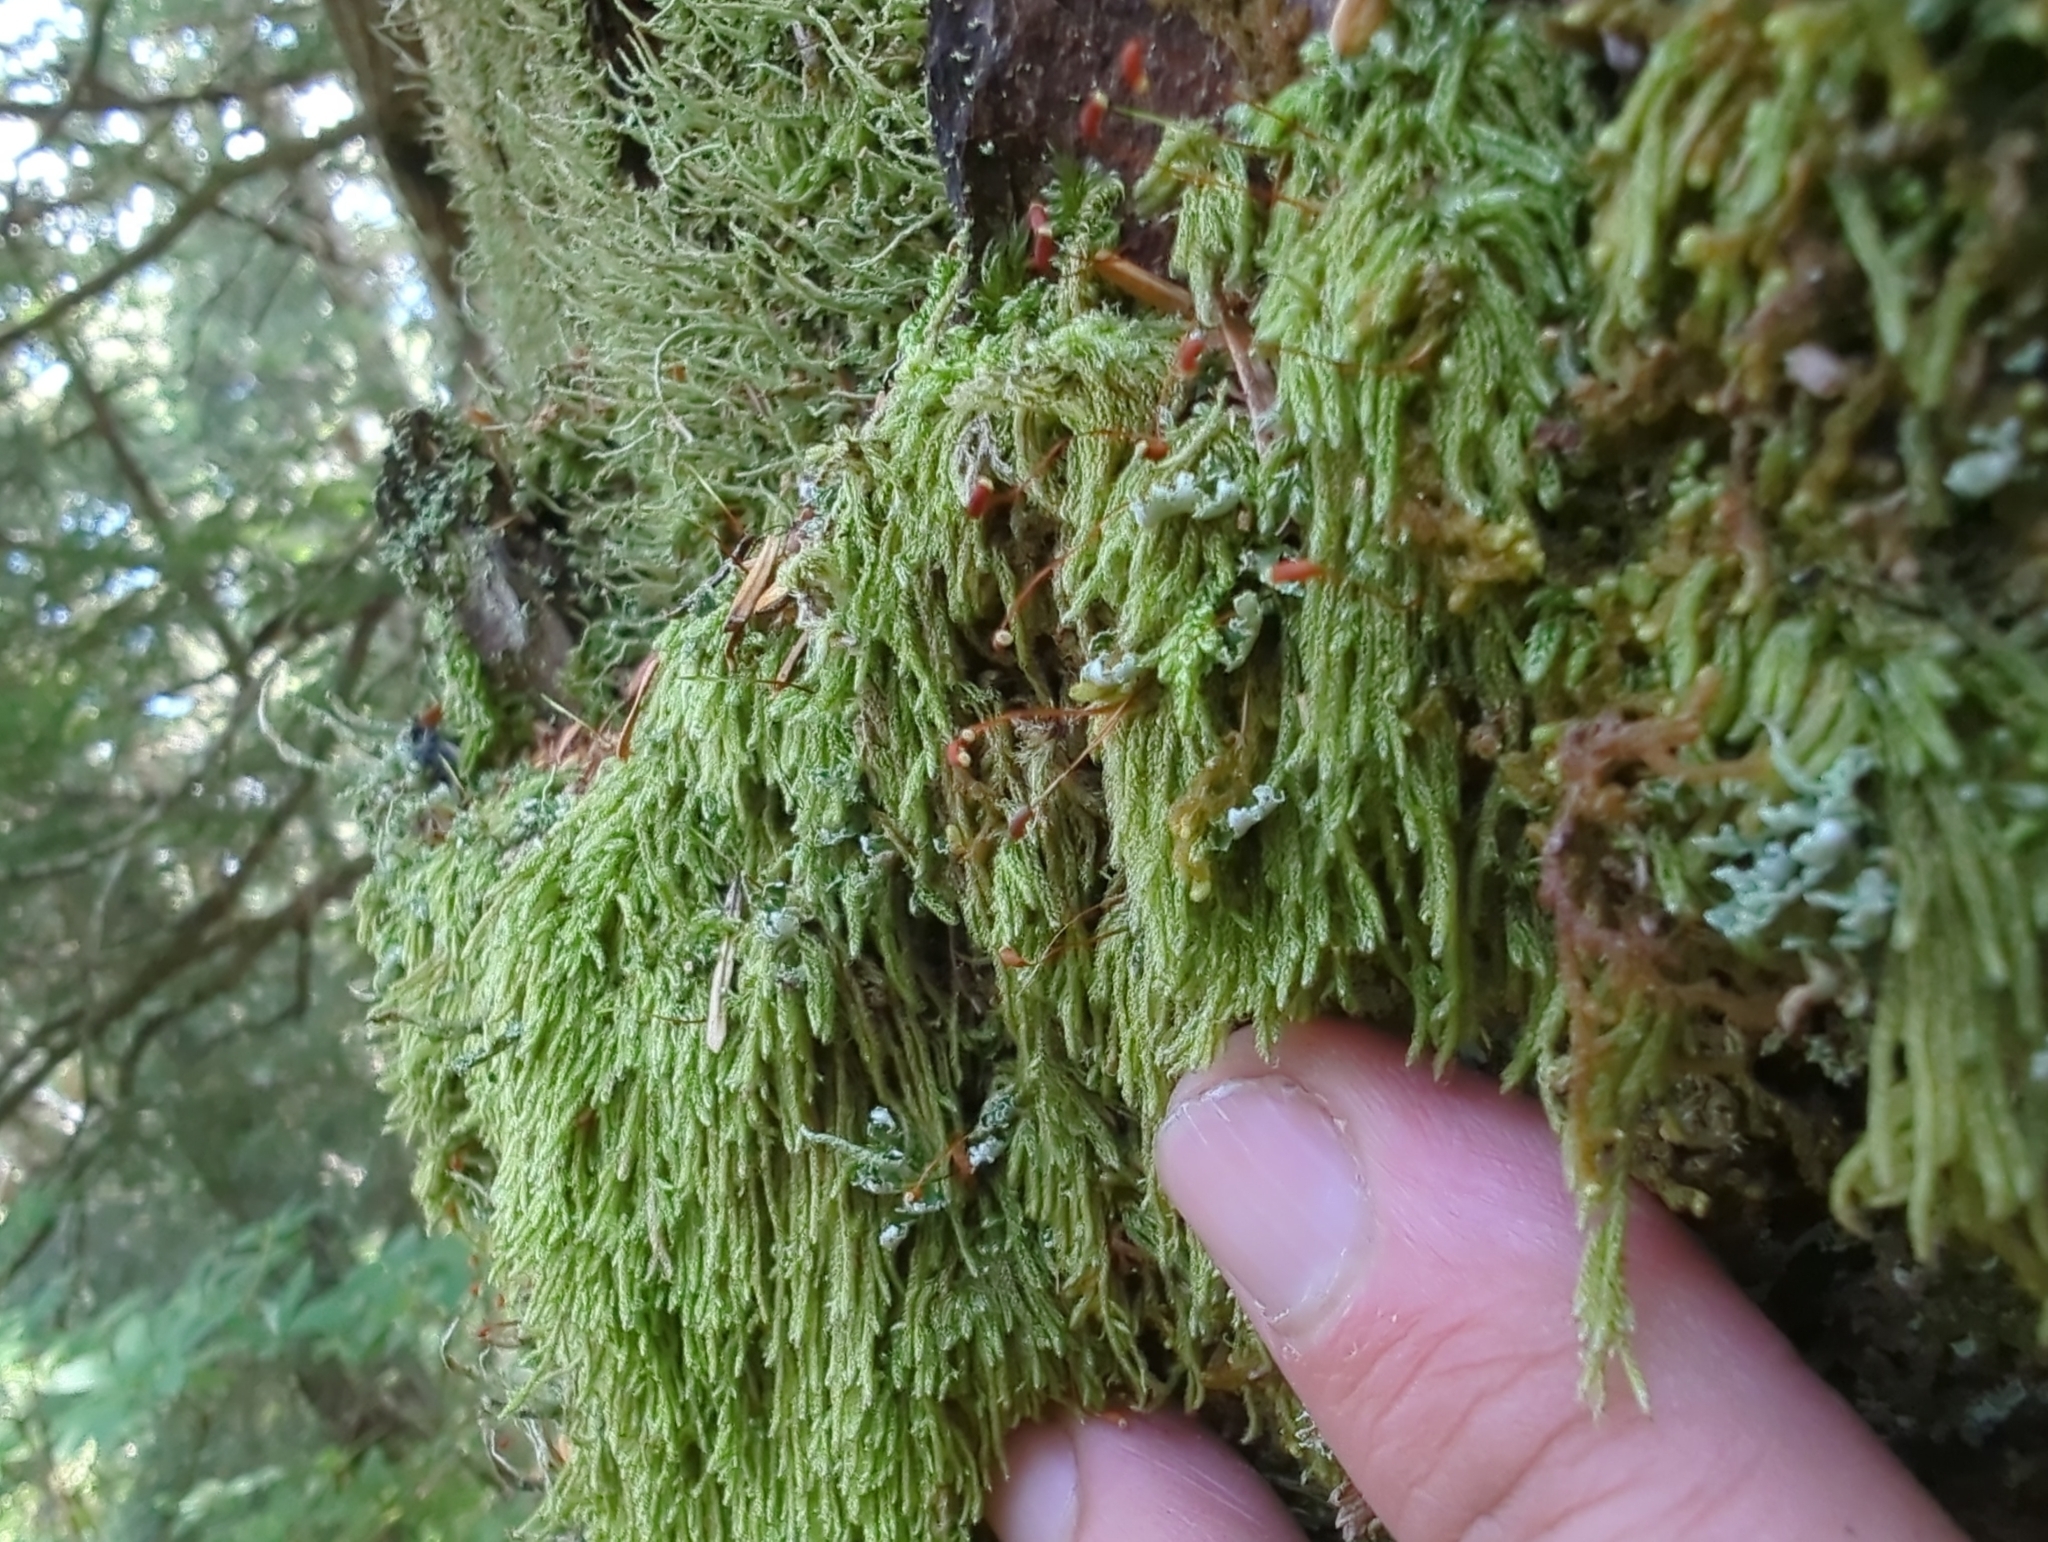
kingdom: Plantae
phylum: Bryophyta
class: Bryopsida
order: Hypnales
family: Pylaisiadelphaceae
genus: Trochophyllohypnum
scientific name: Trochophyllohypnum circinale
